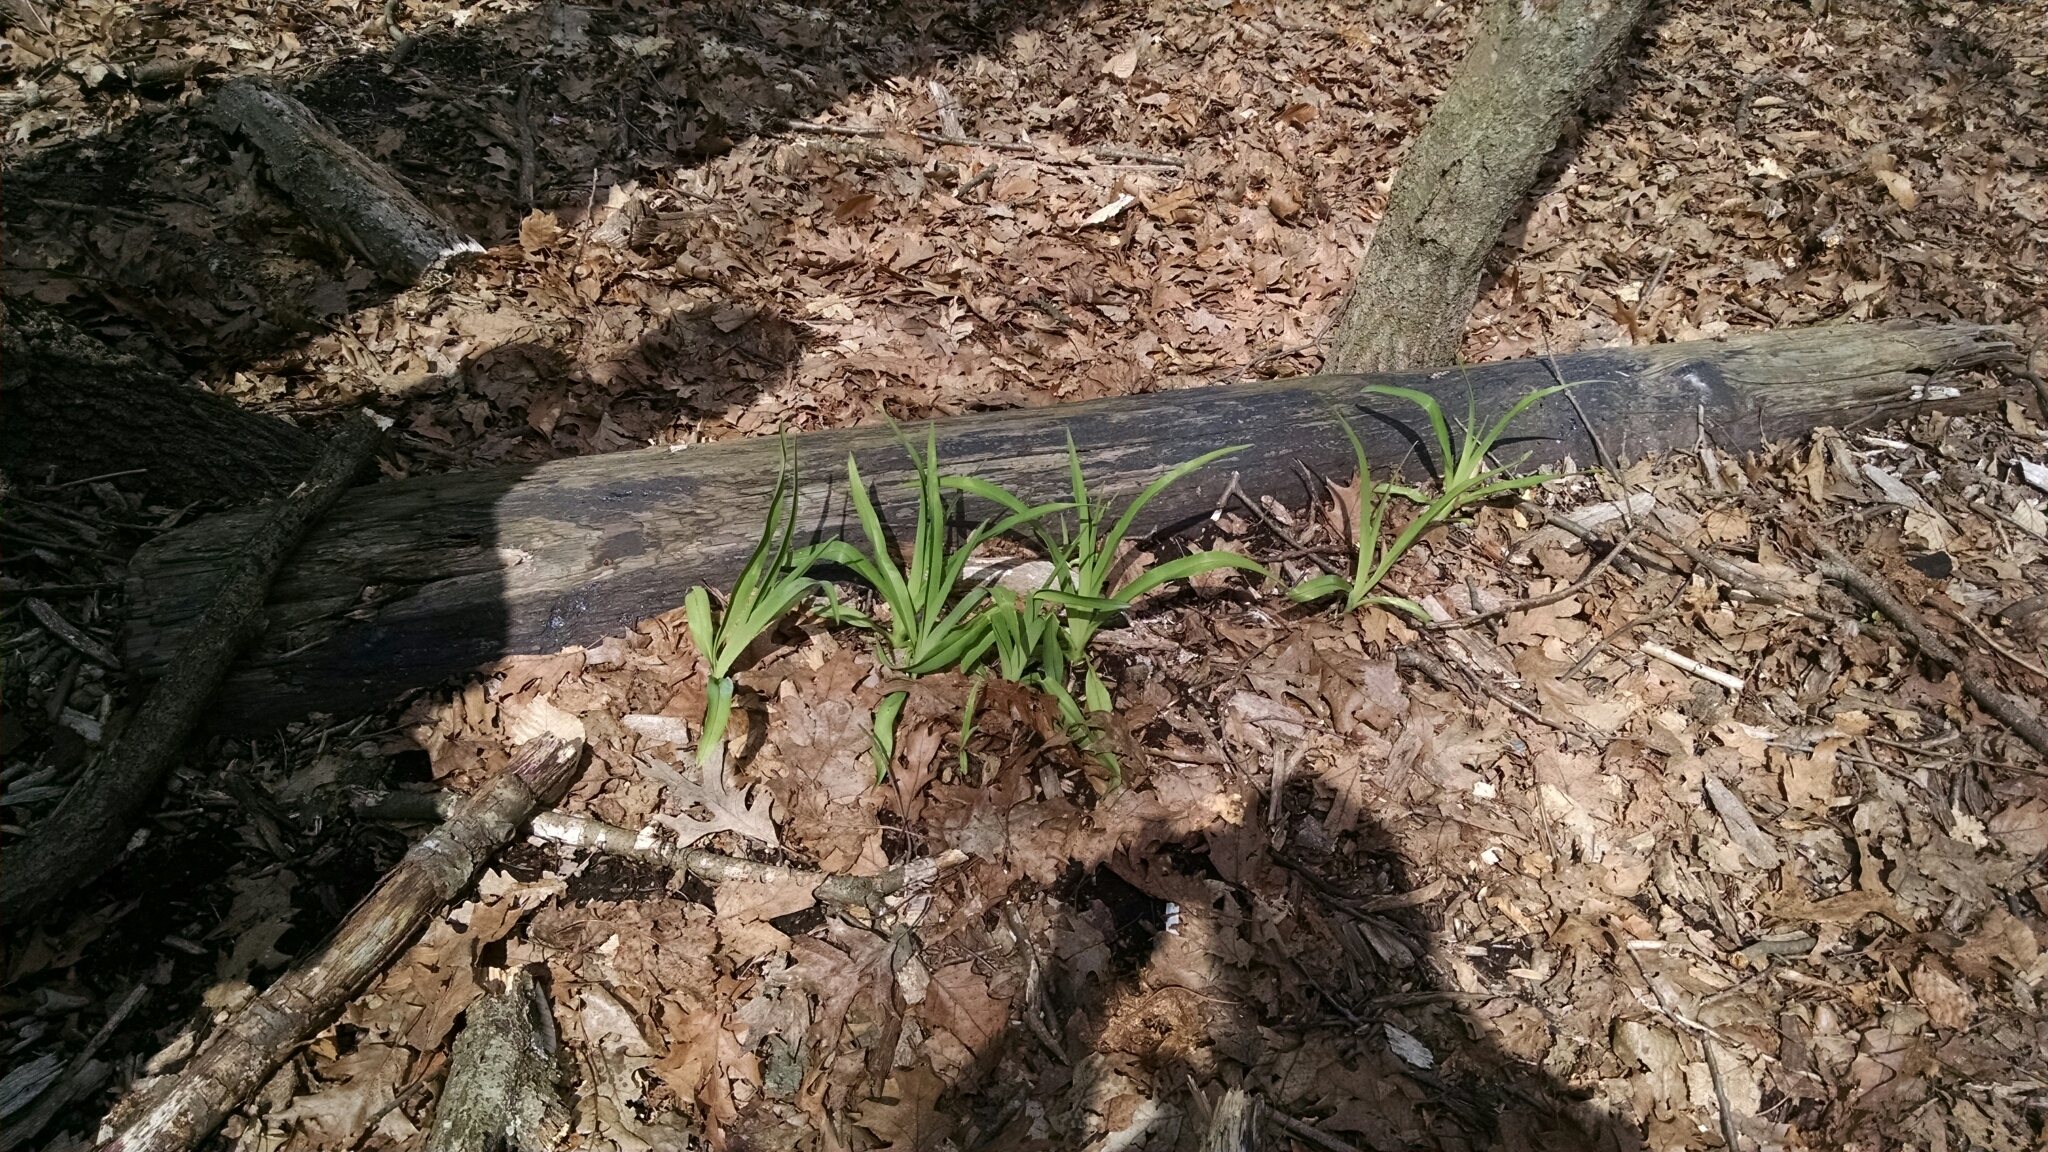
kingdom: Plantae
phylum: Tracheophyta
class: Liliopsida
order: Asparagales
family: Asphodelaceae
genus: Hemerocallis
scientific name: Hemerocallis
